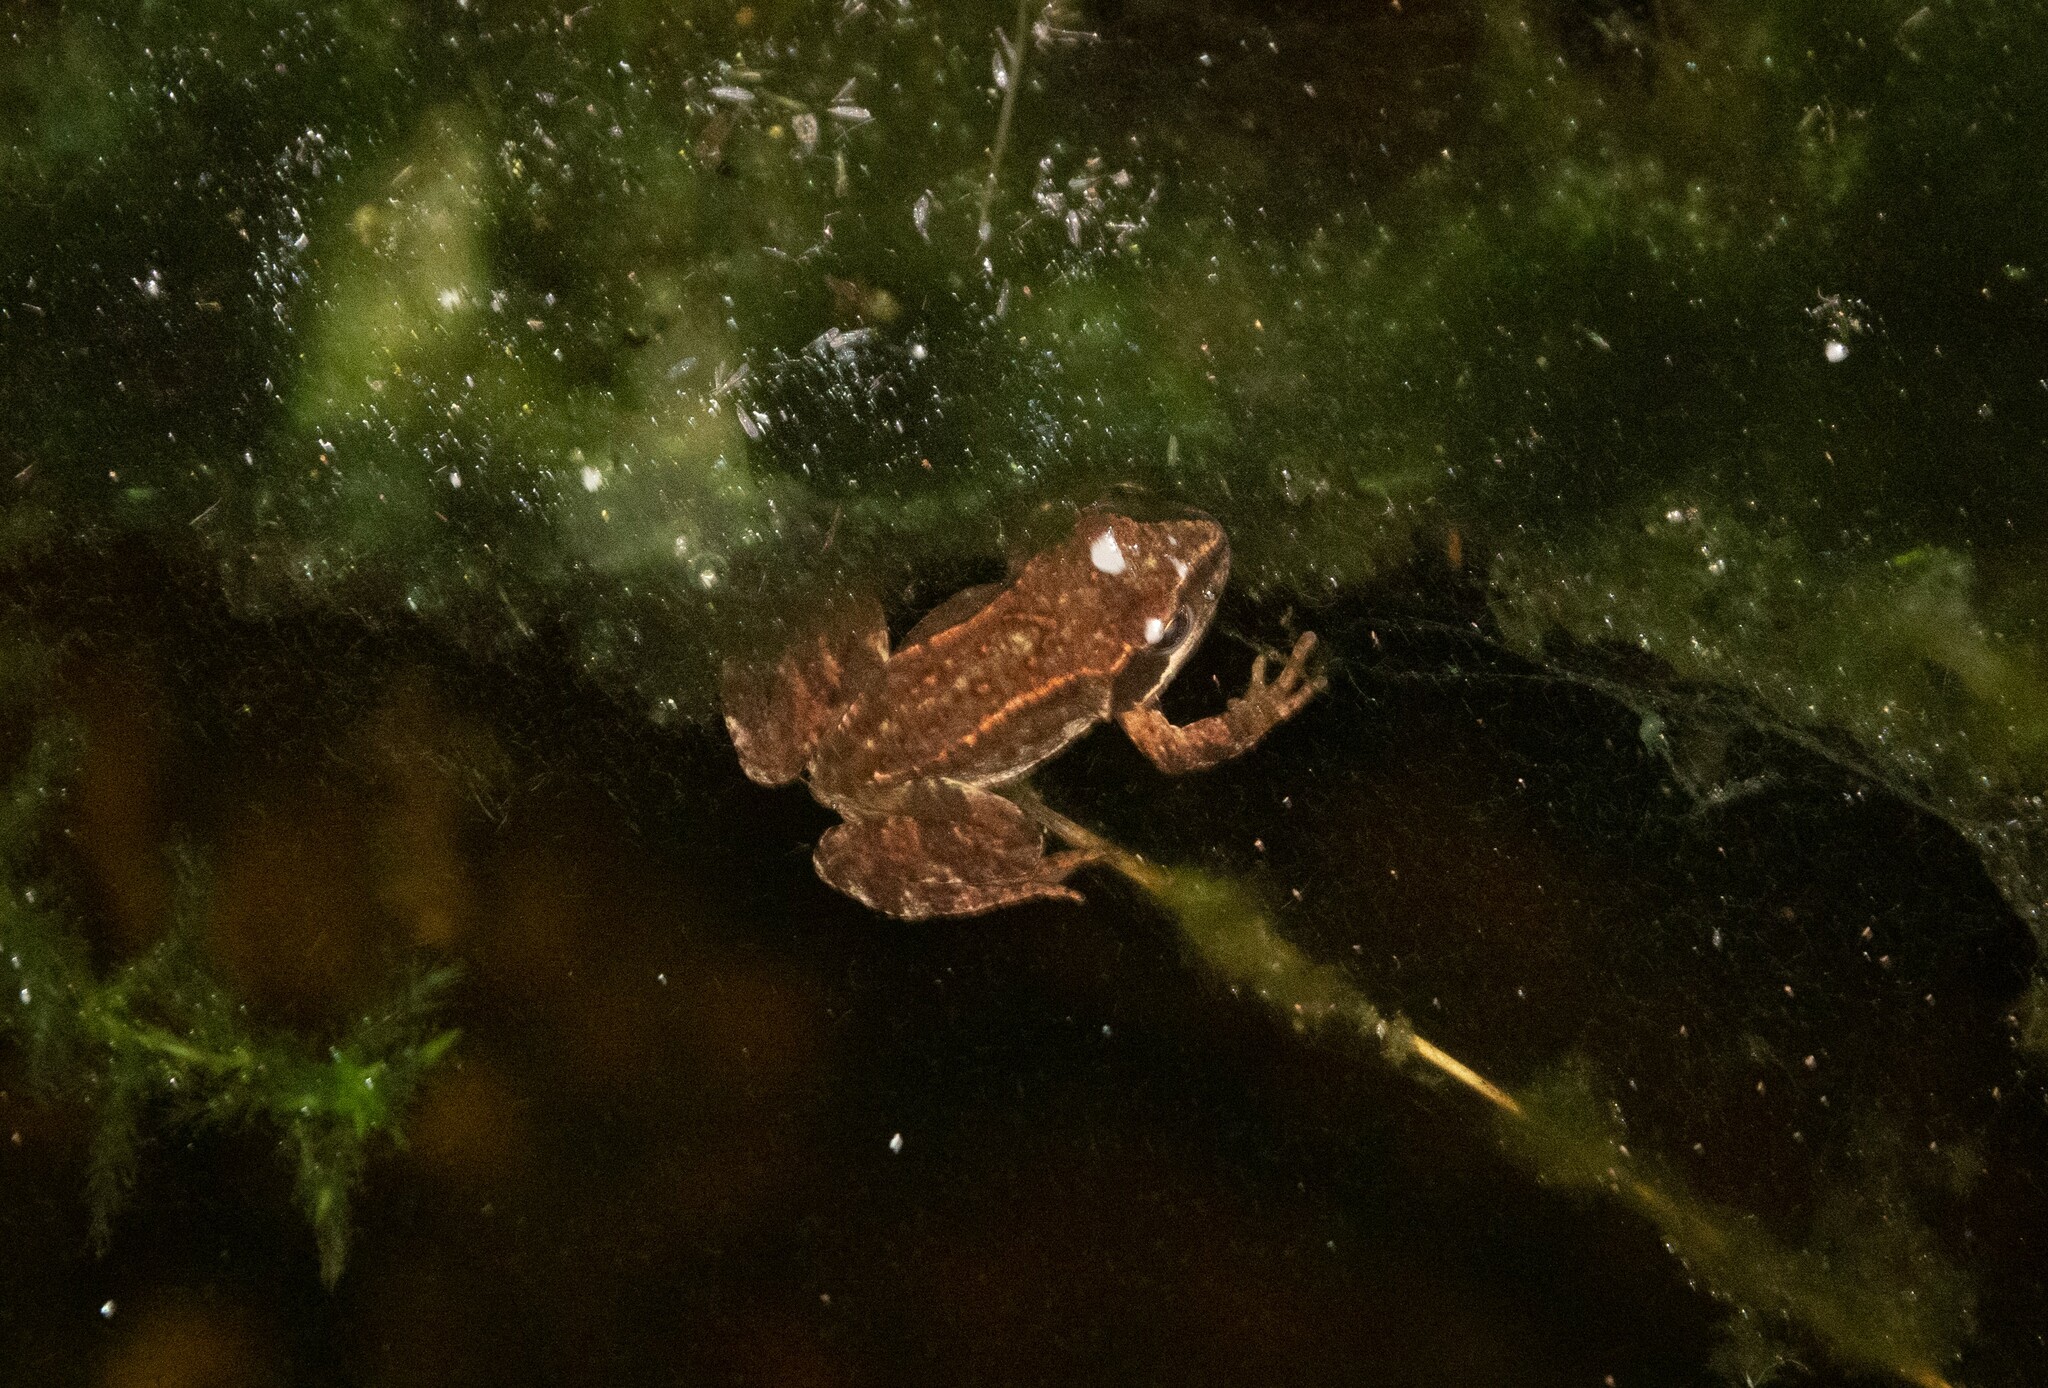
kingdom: Animalia
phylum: Chordata
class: Amphibia
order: Anura
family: Ranidae
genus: Rana
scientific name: Rana temporaria
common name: Common frog
